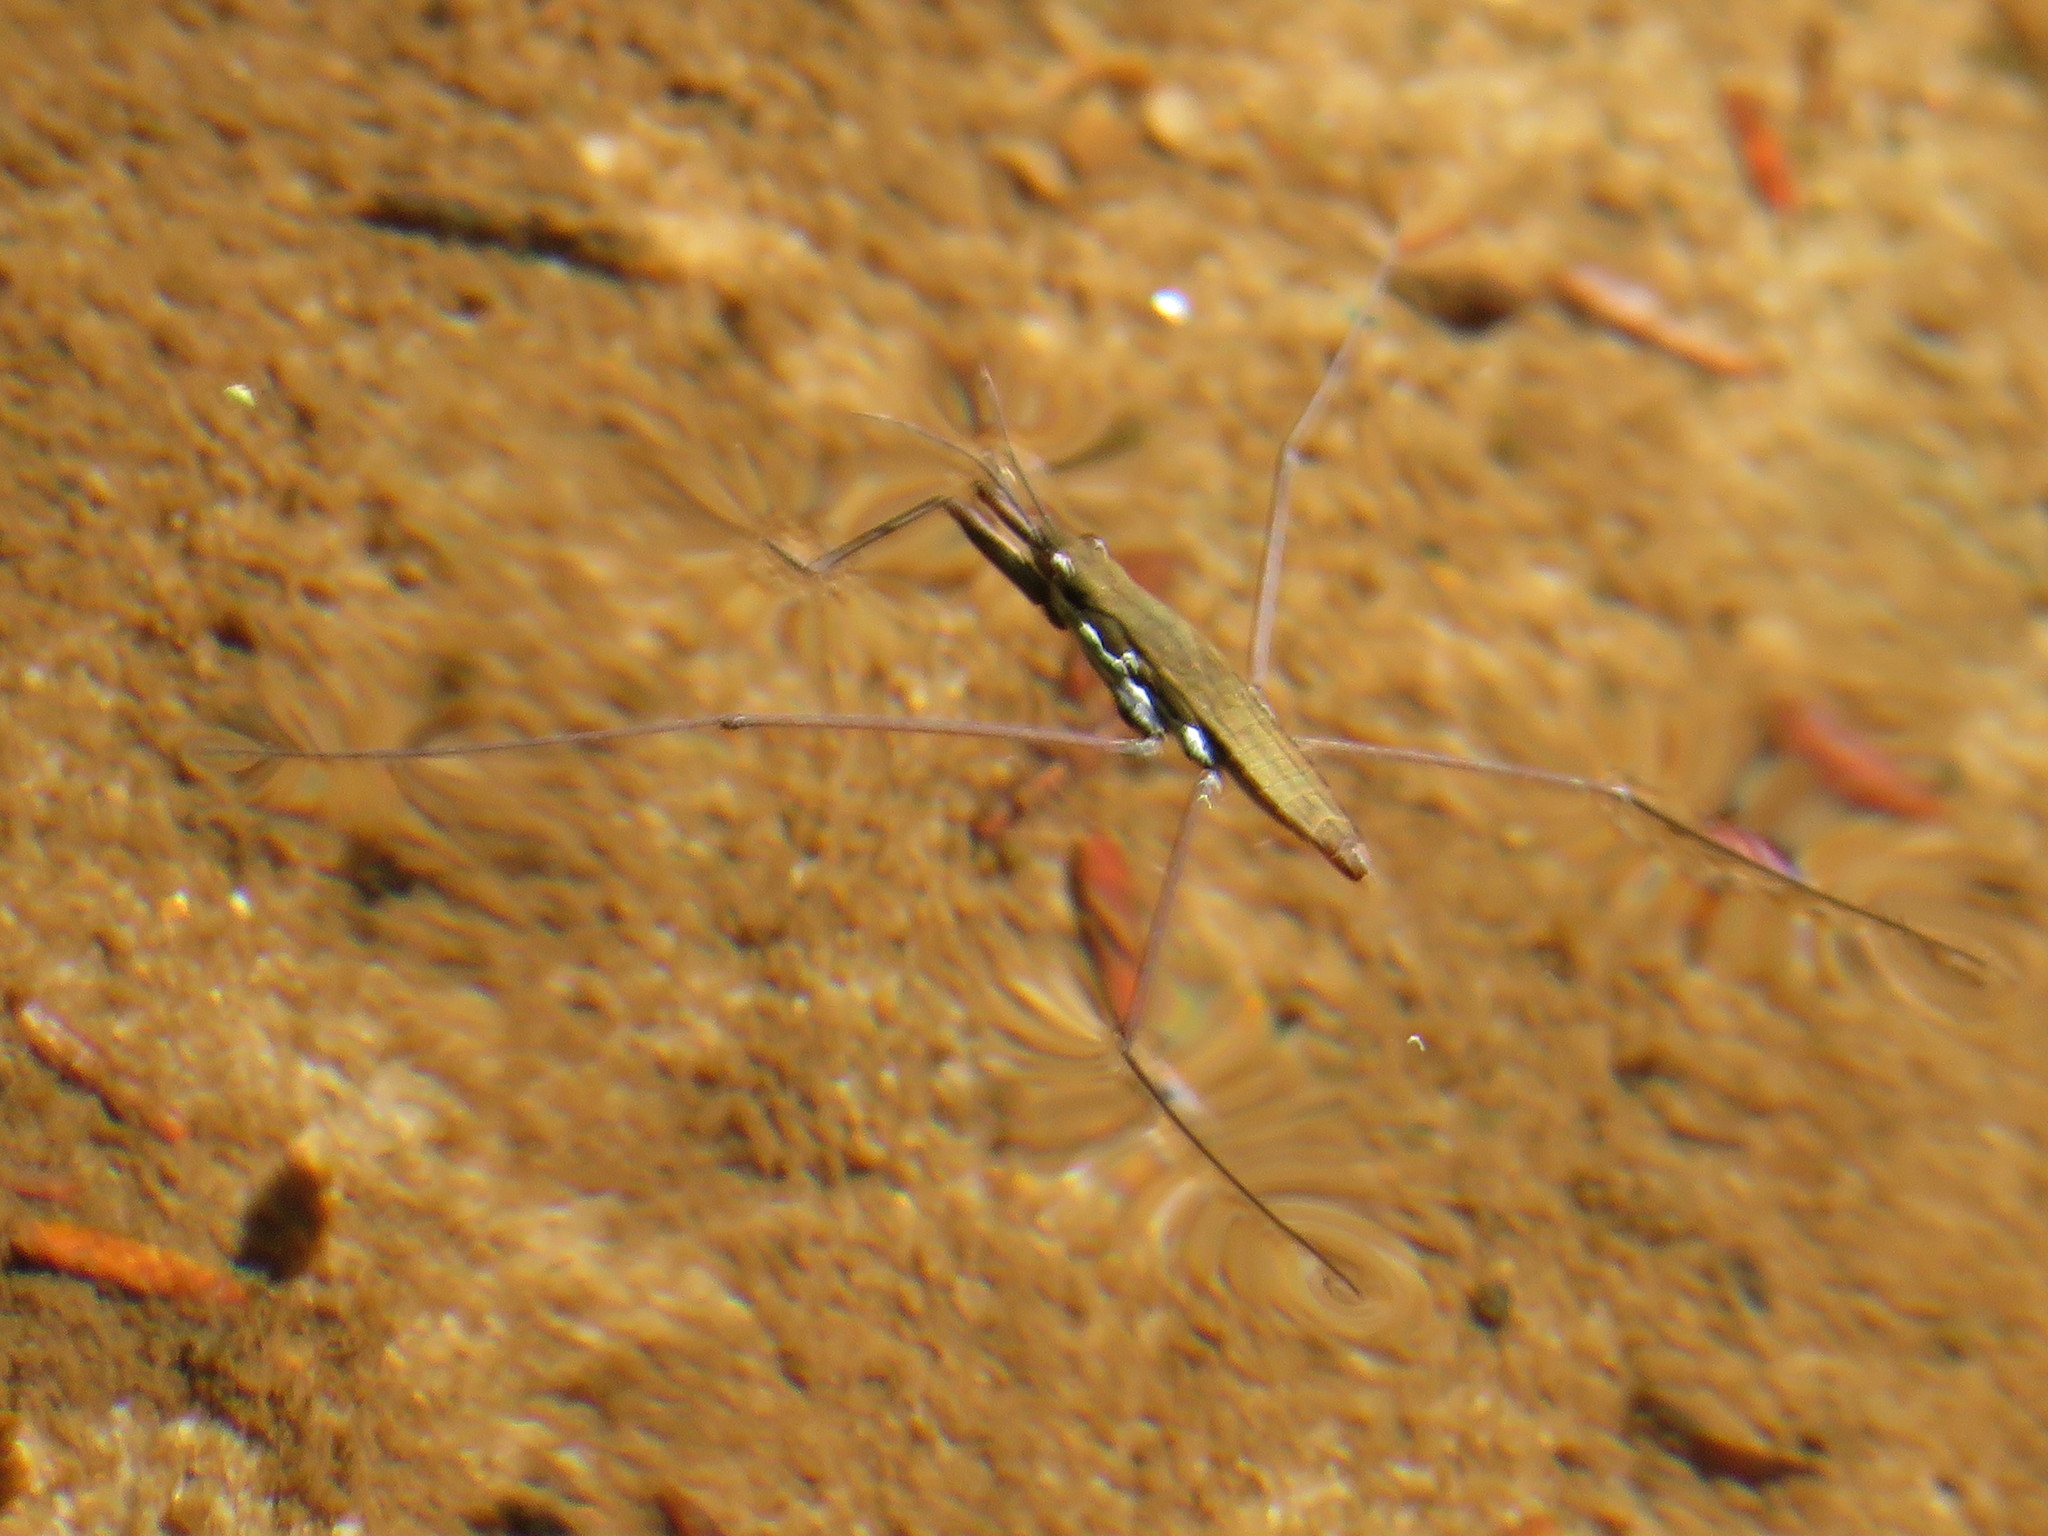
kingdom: Animalia
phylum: Arthropoda
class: Insecta
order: Hemiptera
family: Gerridae
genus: Aquarius
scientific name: Aquarius
